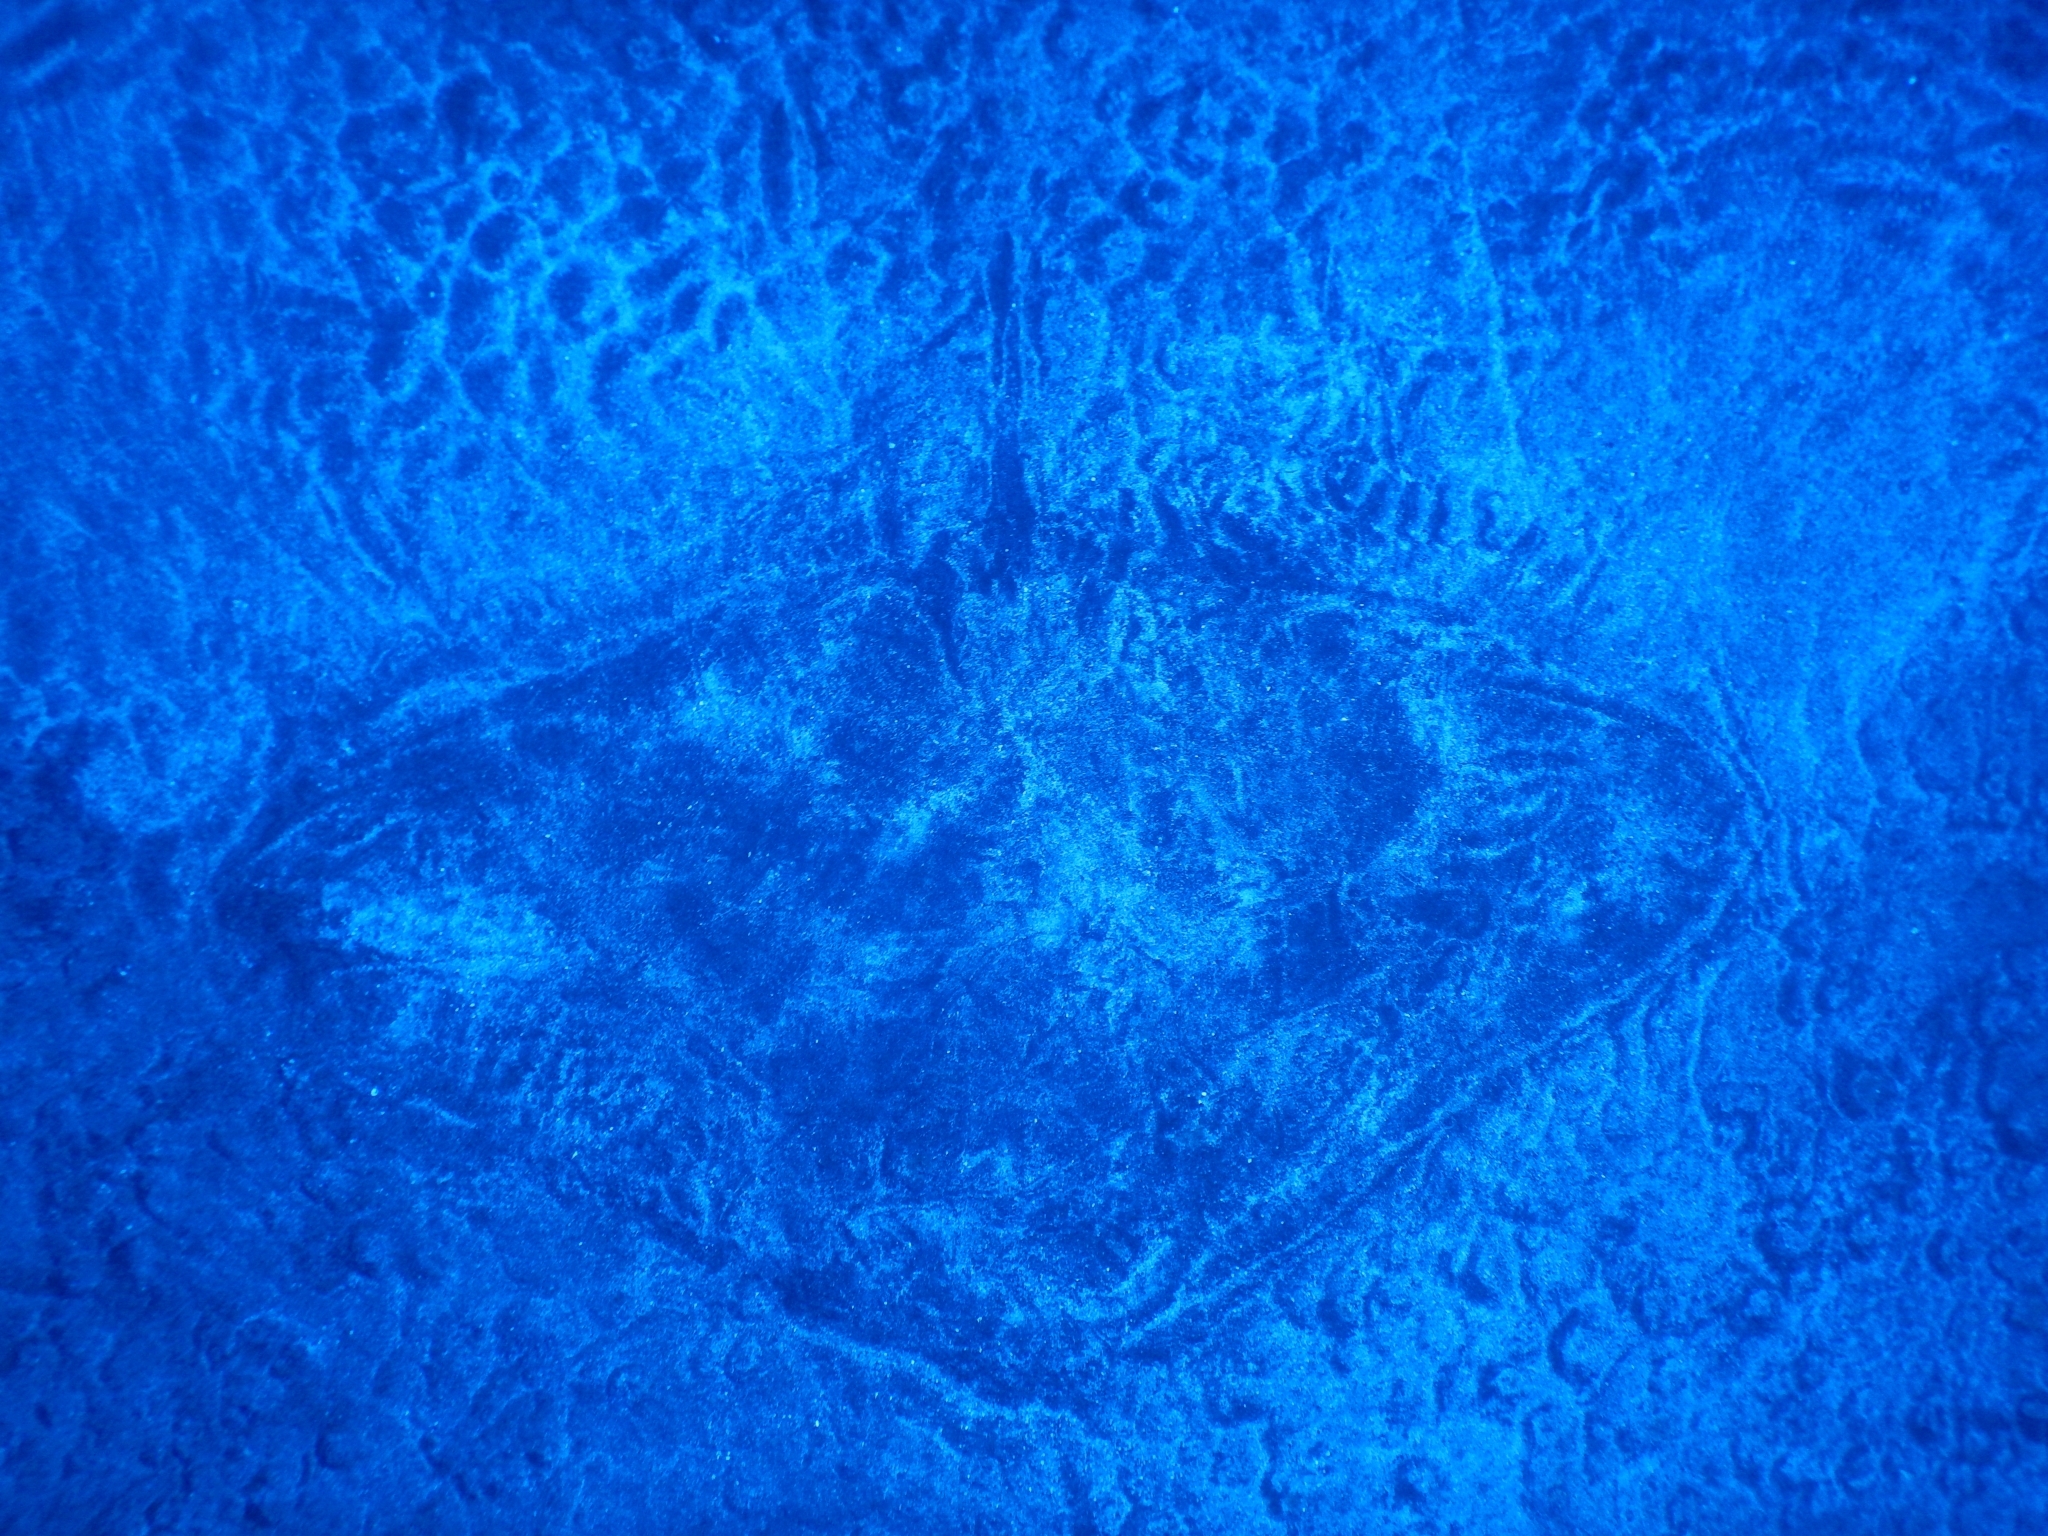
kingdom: Animalia
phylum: Chordata
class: Elasmobranchii
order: Myliobatiformes
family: Gymnuridae
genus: Gymnura
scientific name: Gymnura altavela
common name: Spiny butterfly ray
